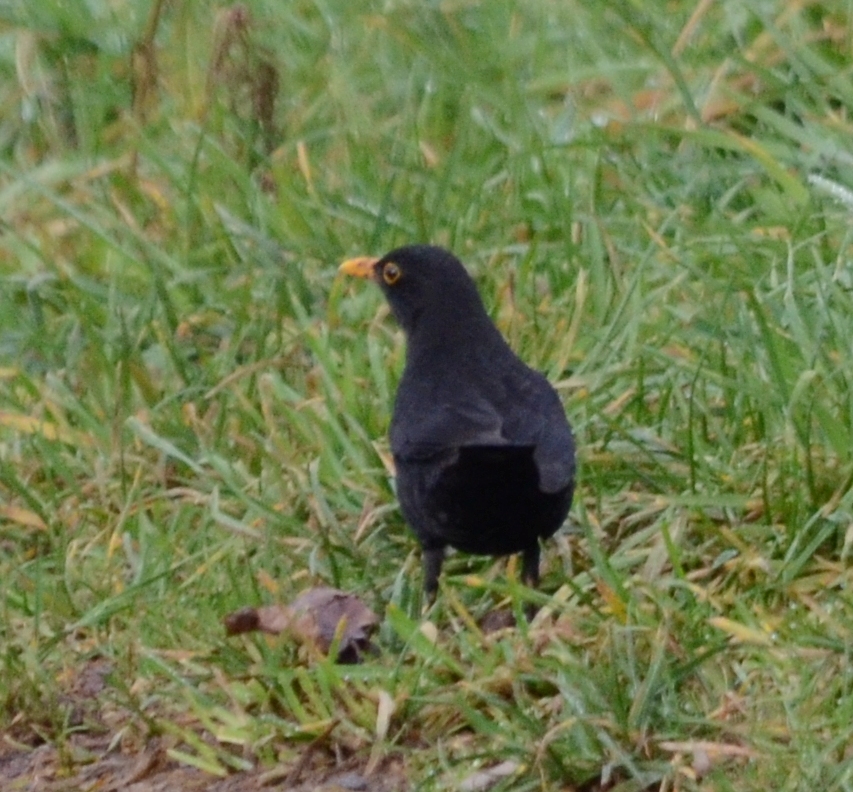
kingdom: Animalia
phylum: Chordata
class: Aves
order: Passeriformes
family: Turdidae
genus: Turdus
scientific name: Turdus merula
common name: Common blackbird
